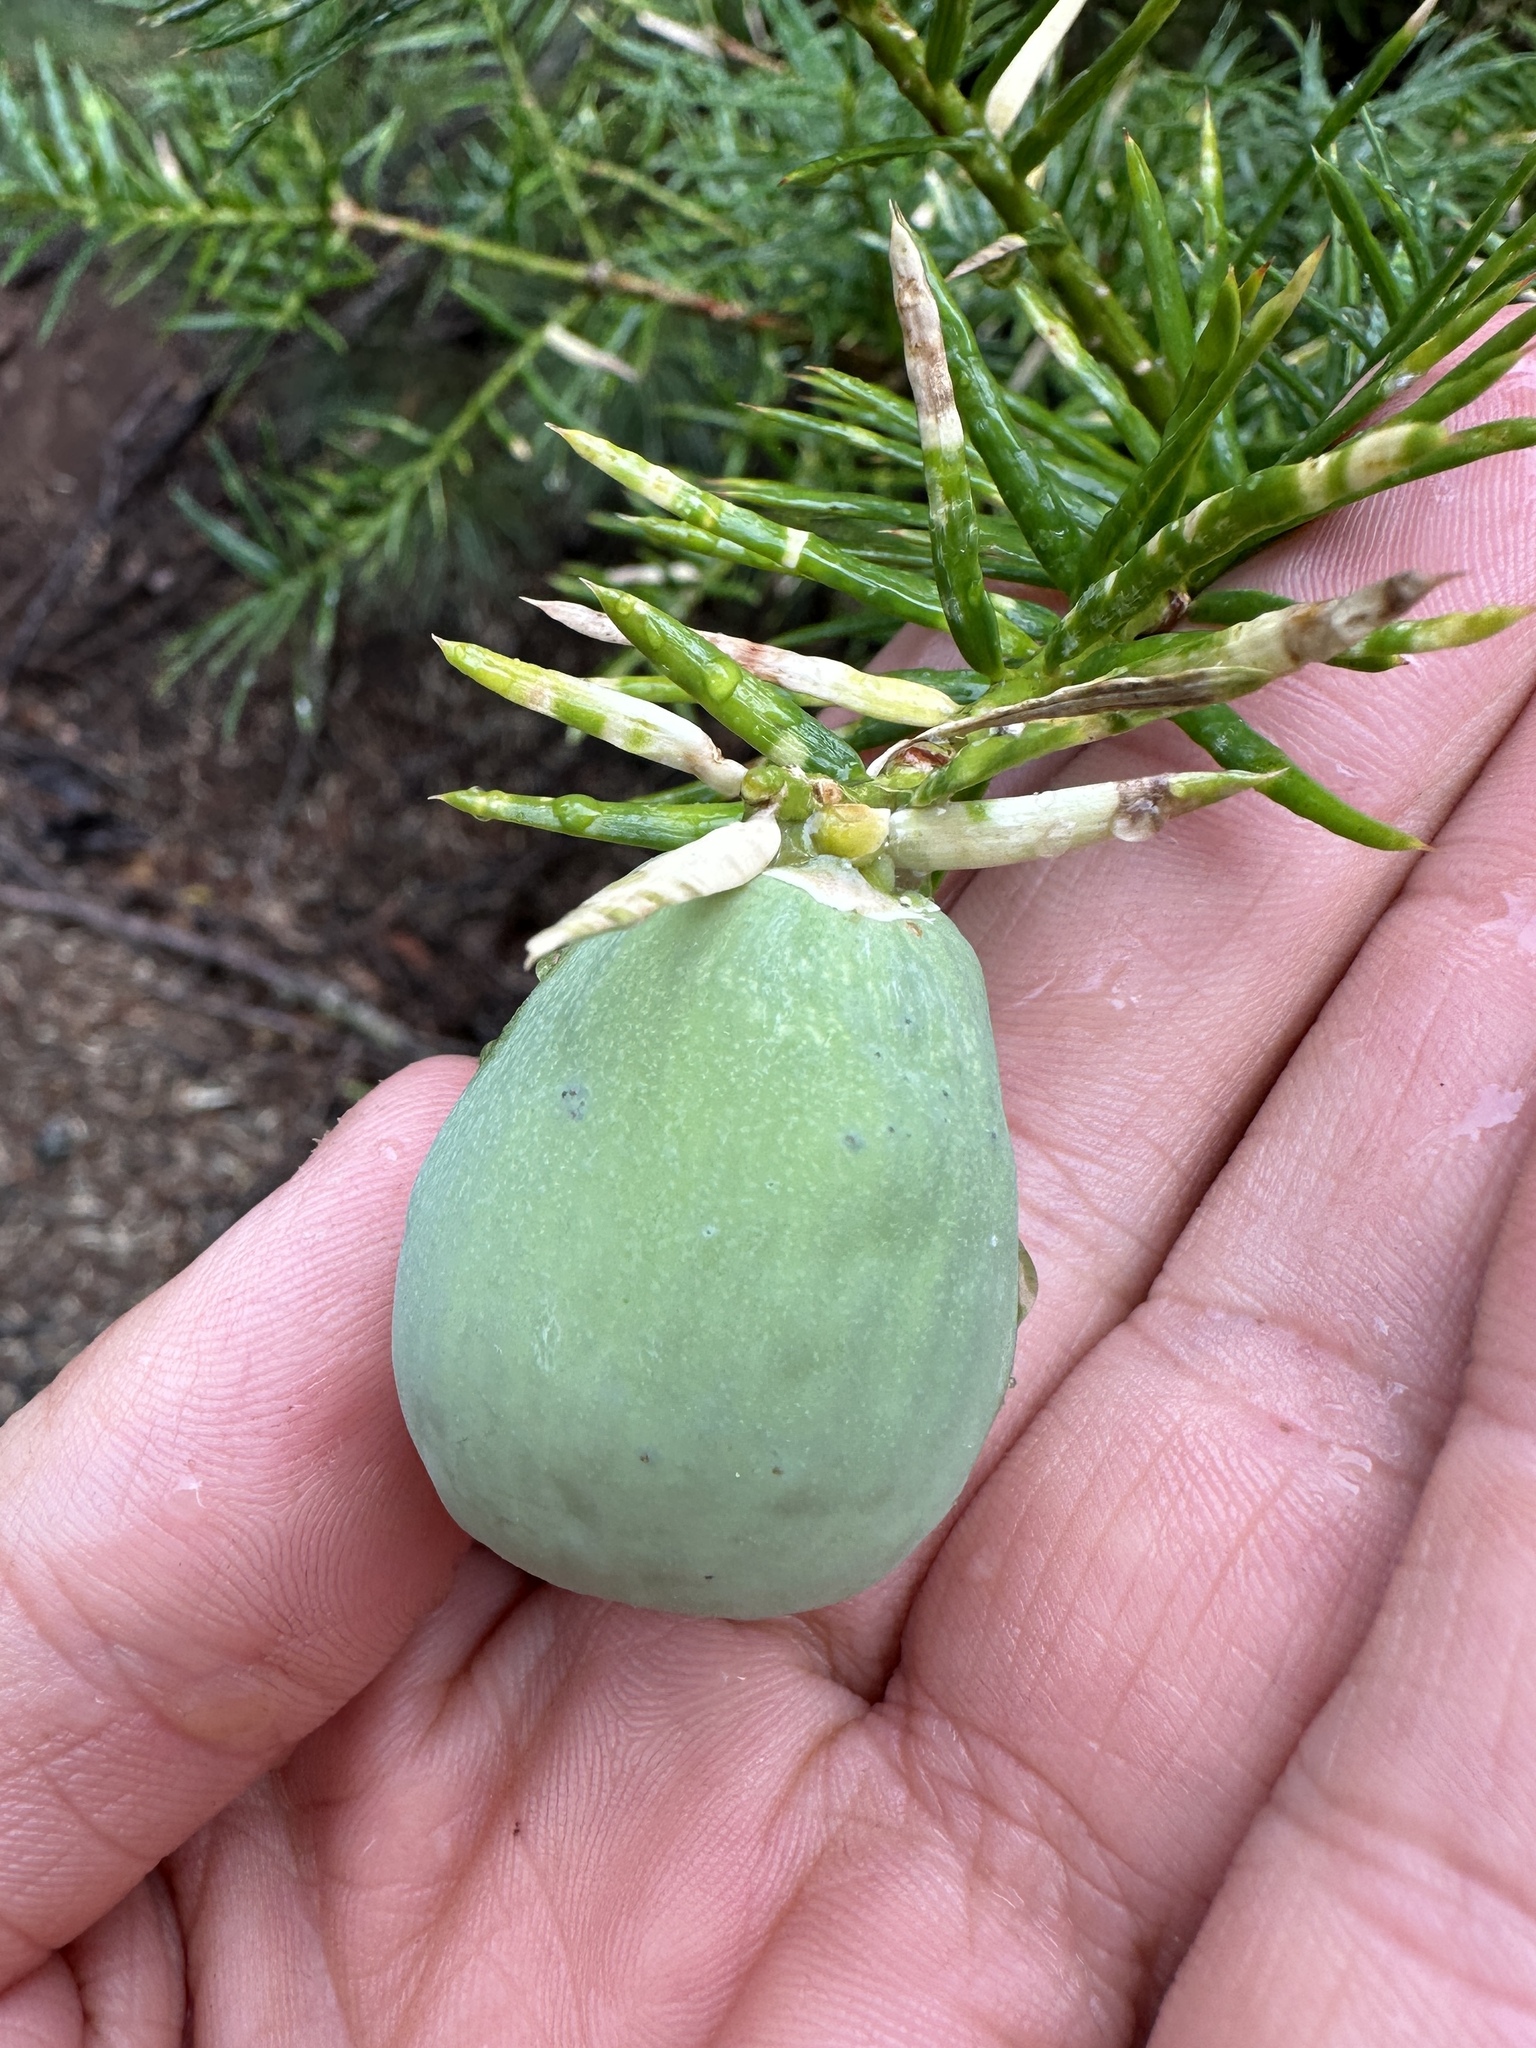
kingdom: Plantae
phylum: Tracheophyta
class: Pinopsida
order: Pinales
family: Taxaceae
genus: Torreya
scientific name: Torreya californica
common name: California torreya
